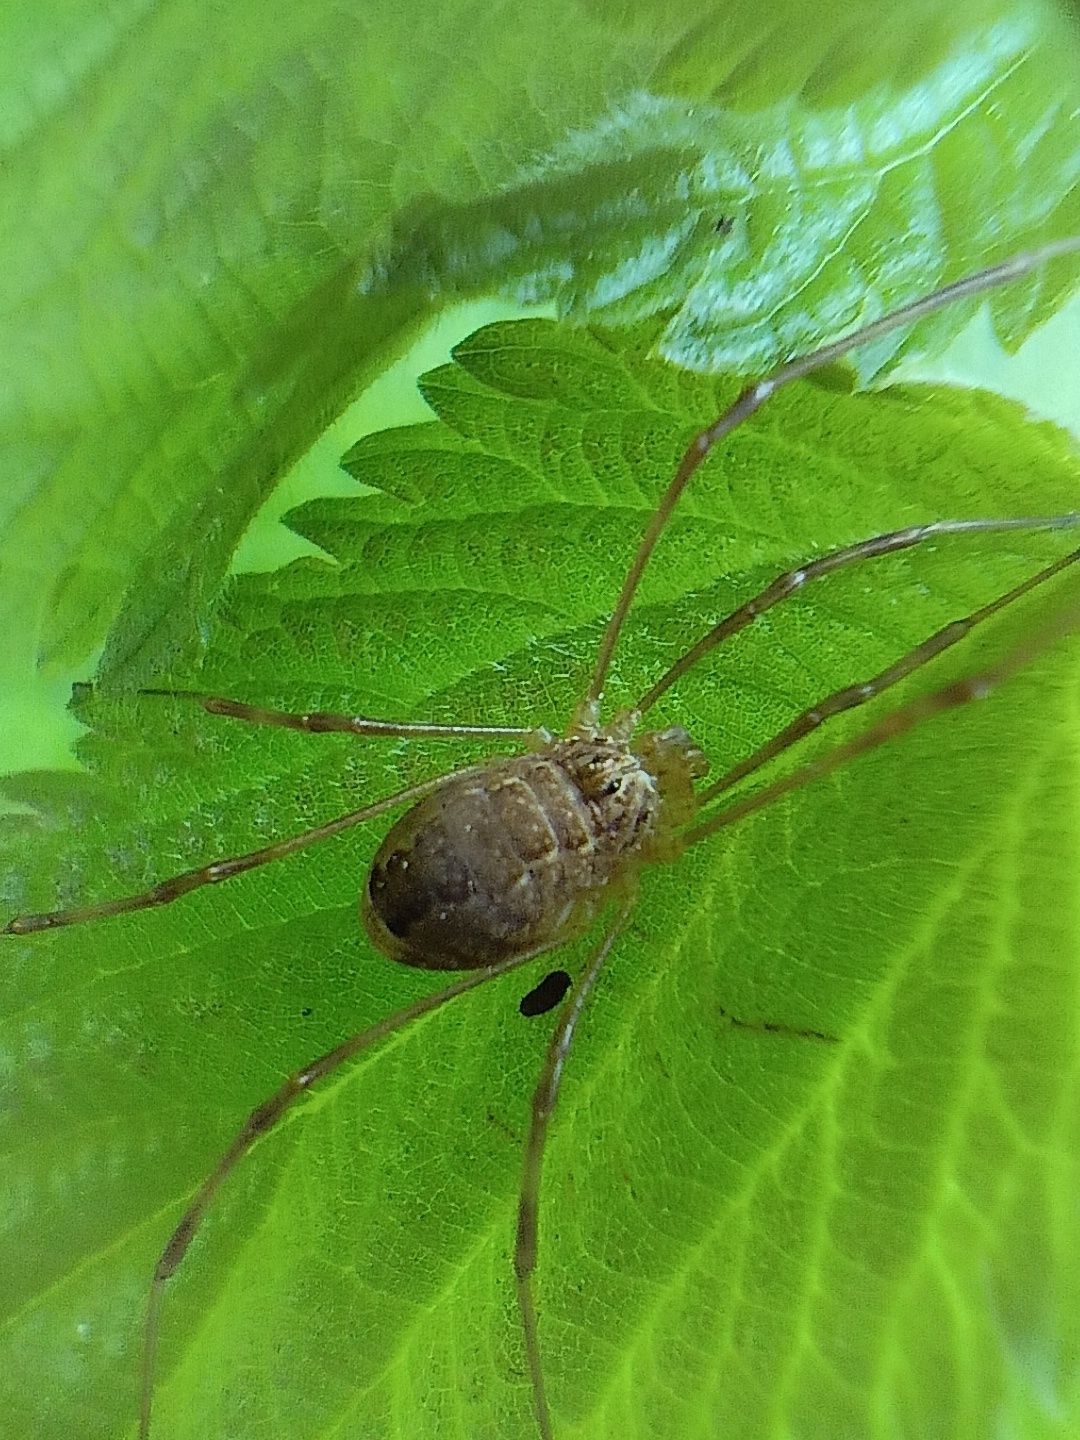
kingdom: Animalia
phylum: Arthropoda
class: Arachnida
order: Opiliones
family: Phalangiidae
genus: Rilaena
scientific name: Rilaena triangularis
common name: Spring harvestman
